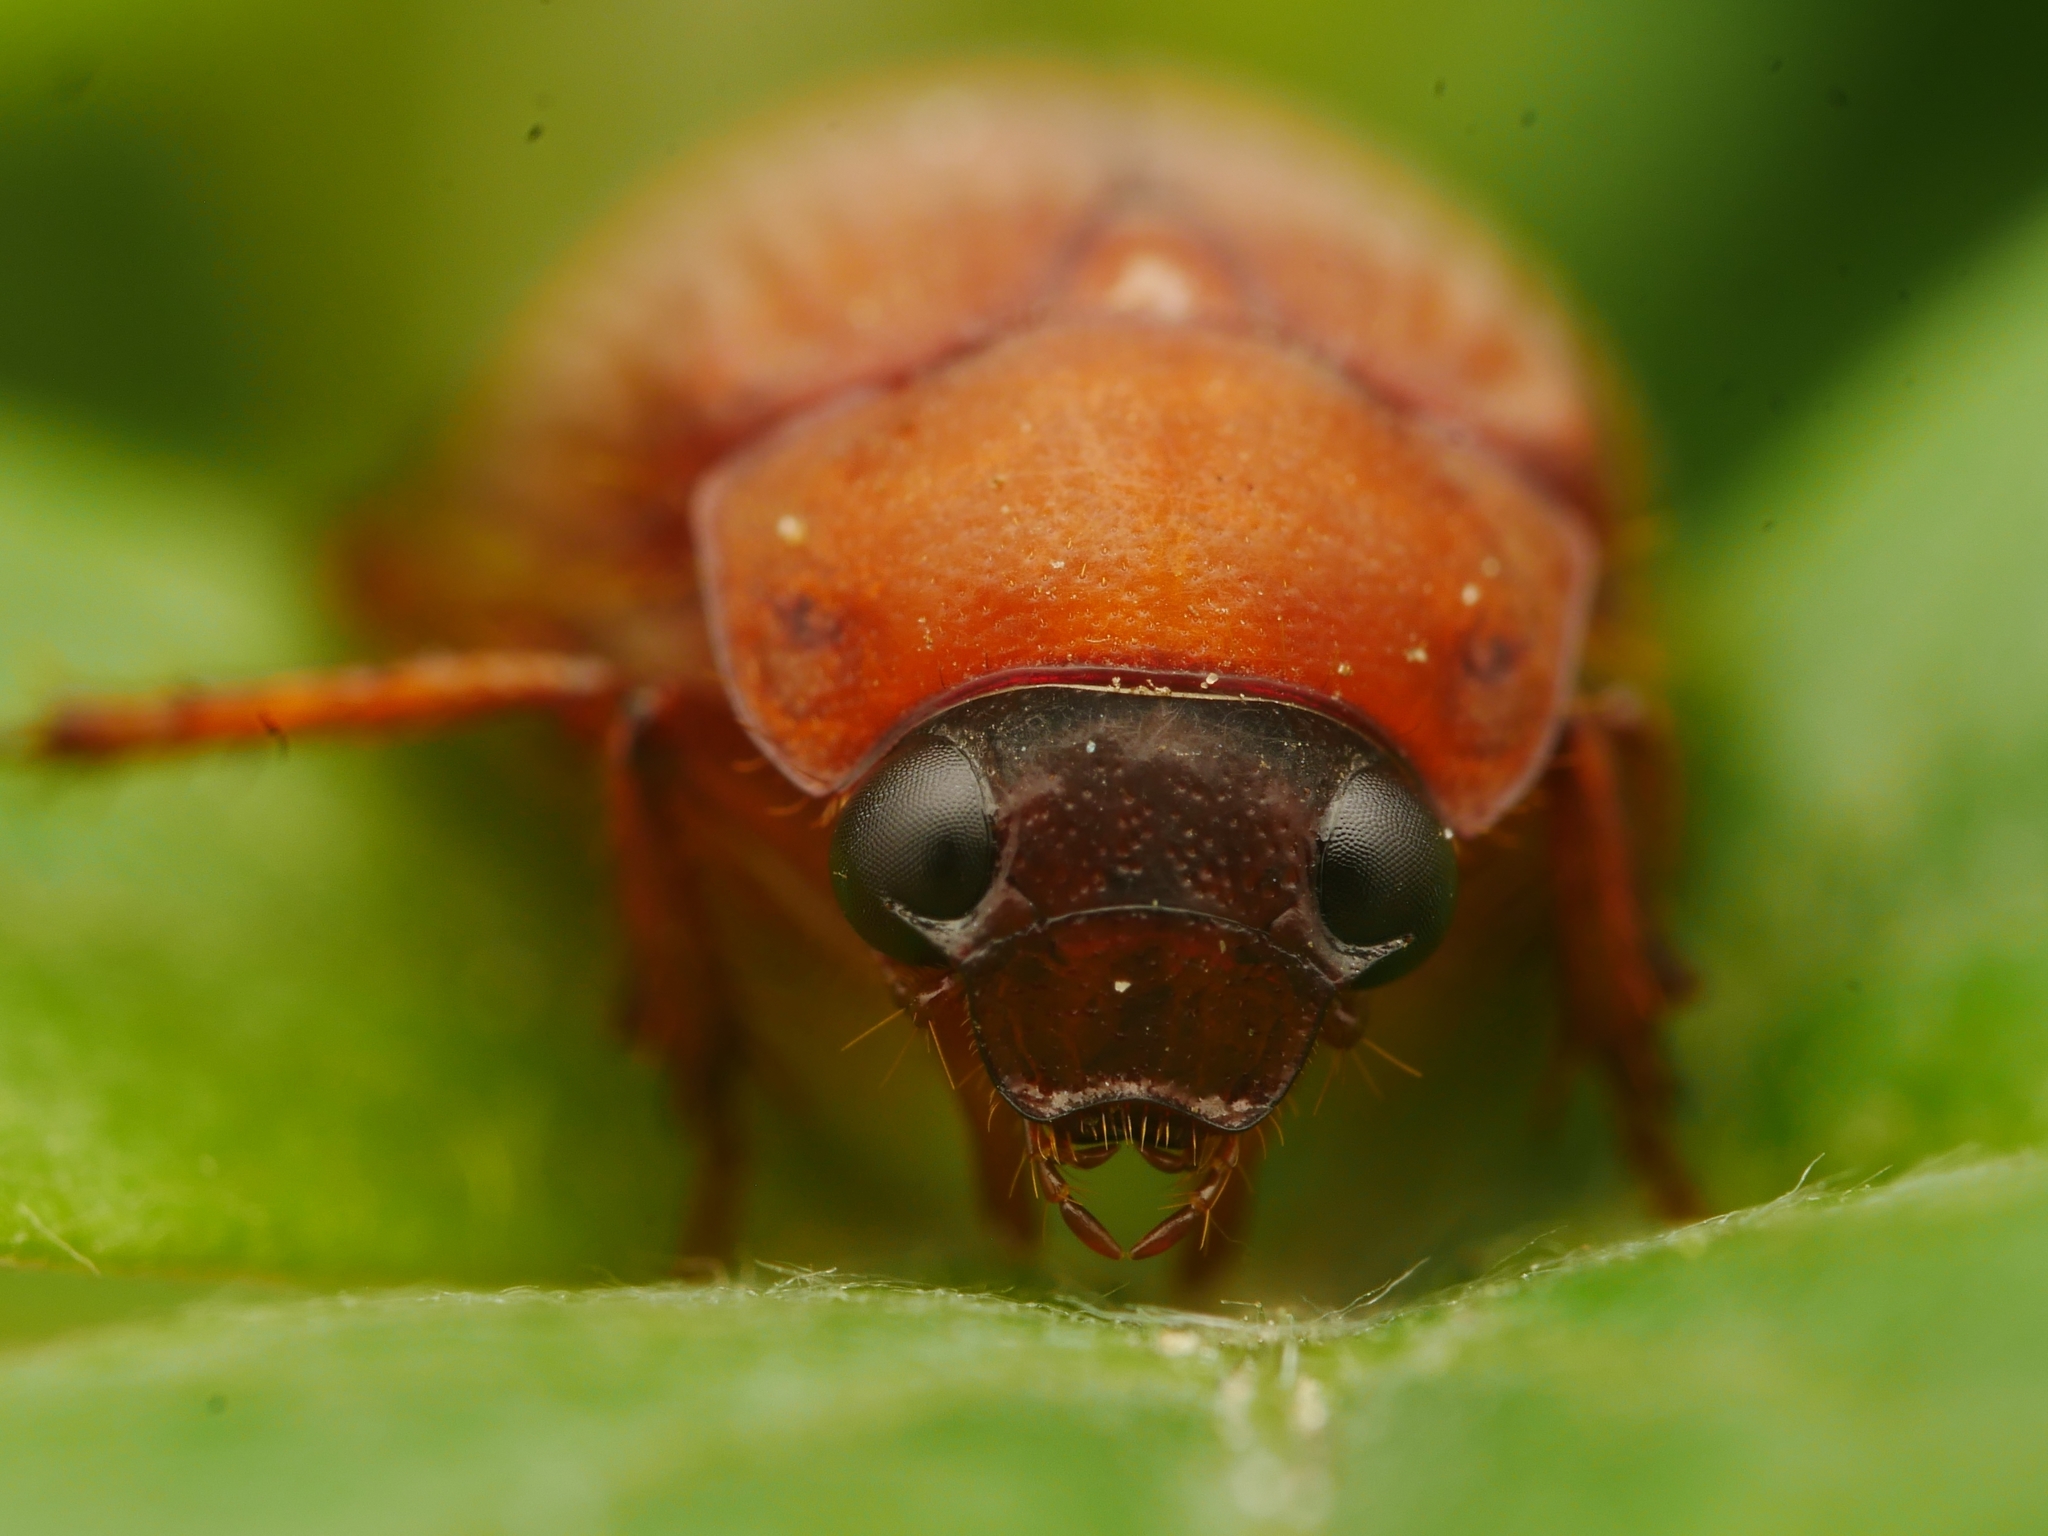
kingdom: Animalia
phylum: Arthropoda
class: Insecta
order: Coleoptera
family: Scarabaeidae
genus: Serica
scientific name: Serica brunnea
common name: Brown chafer
